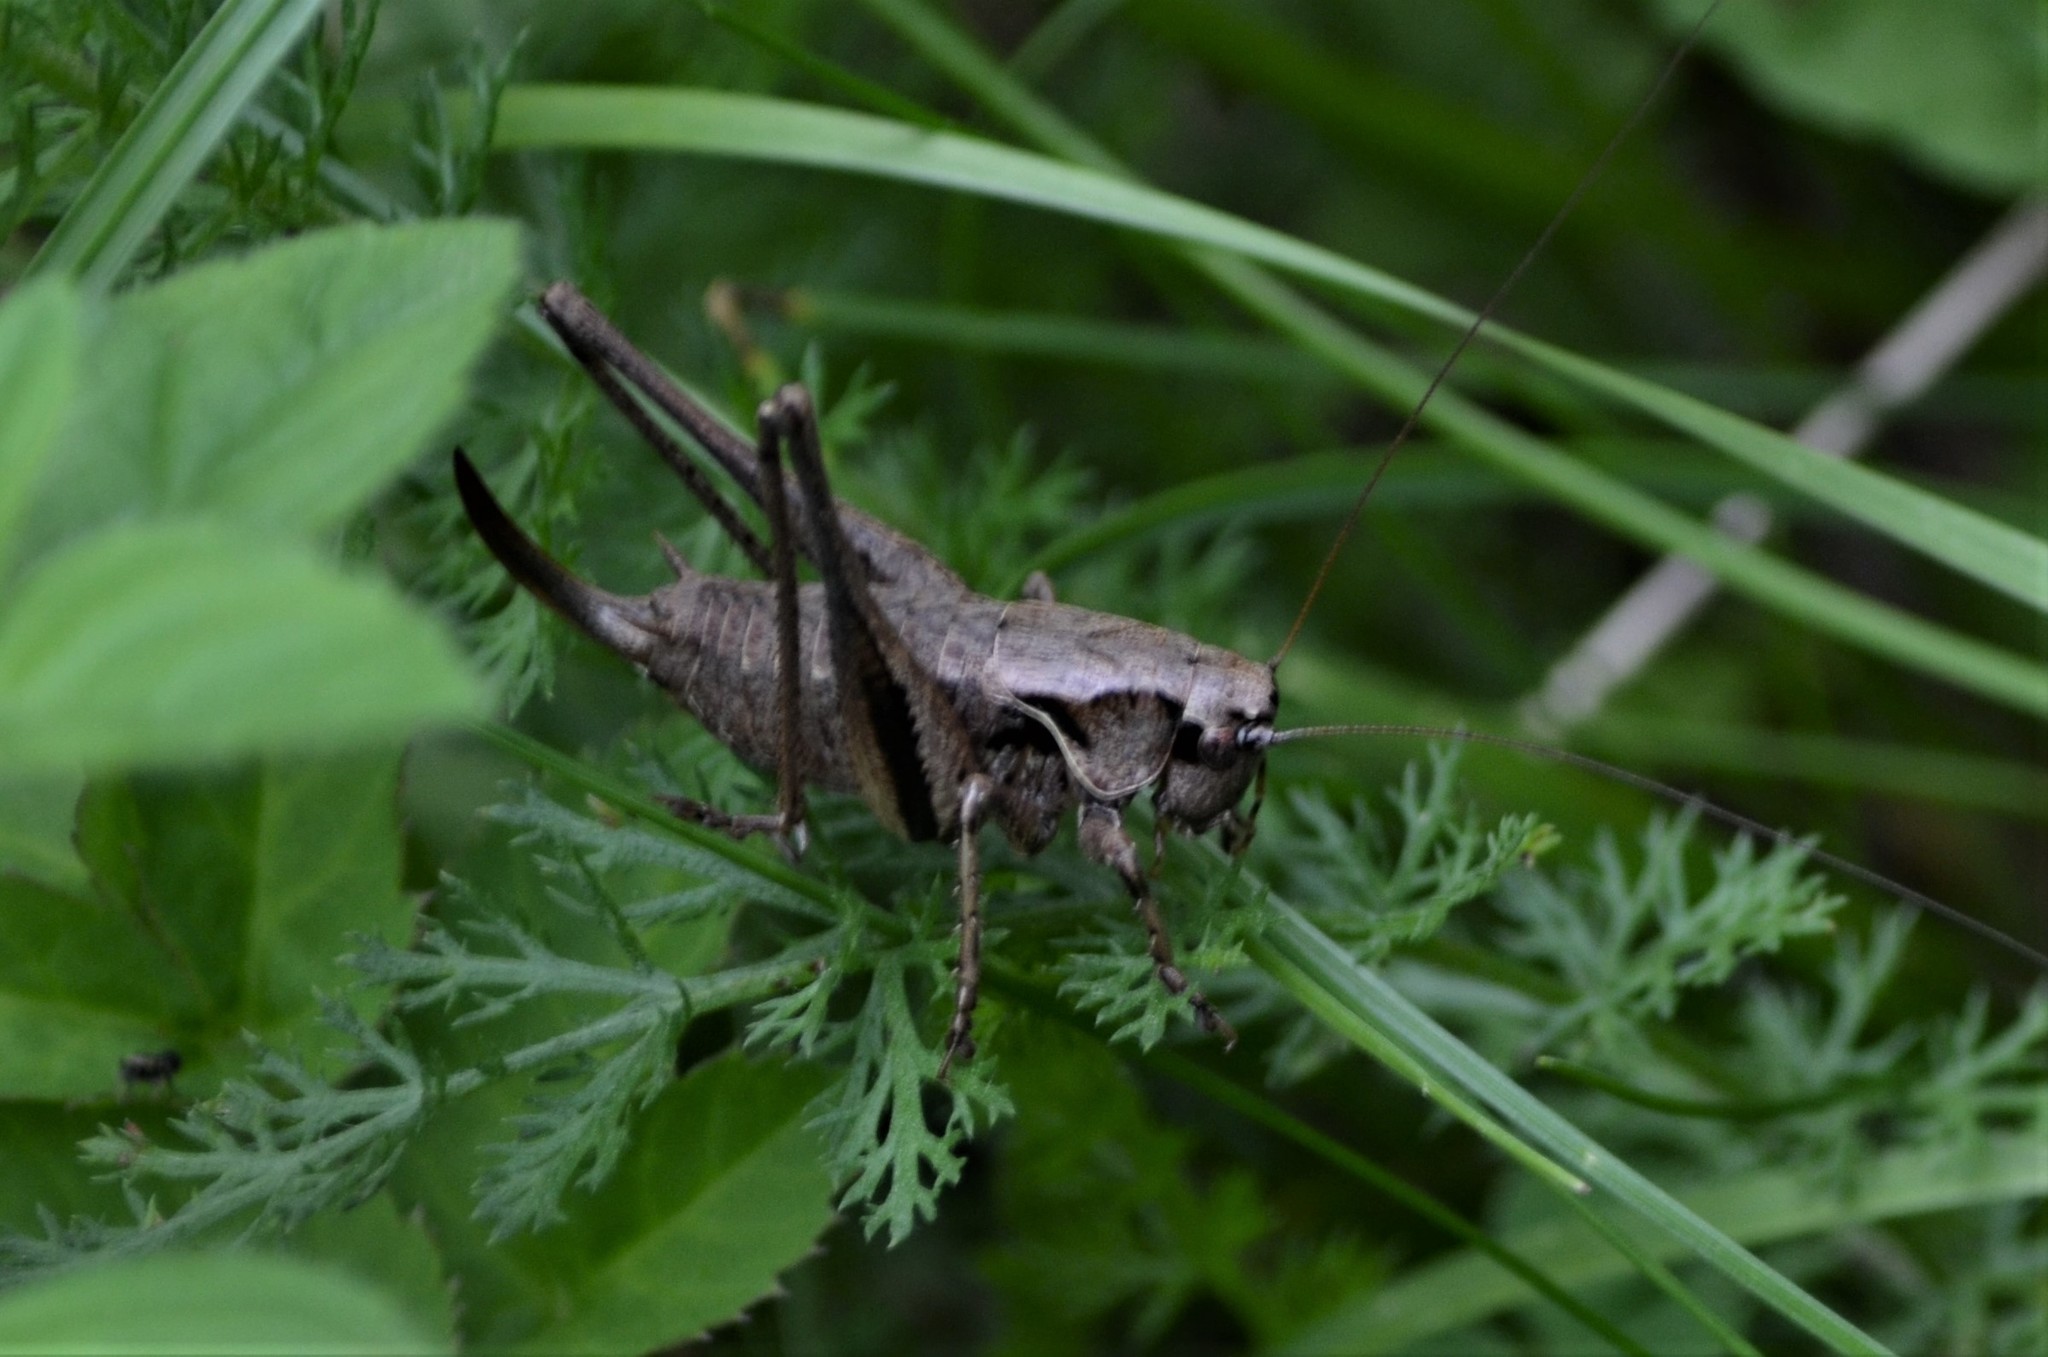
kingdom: Animalia
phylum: Arthropoda
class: Insecta
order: Orthoptera
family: Tettigoniidae
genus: Pholidoptera
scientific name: Pholidoptera griseoaptera
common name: Dark bush-cricket
